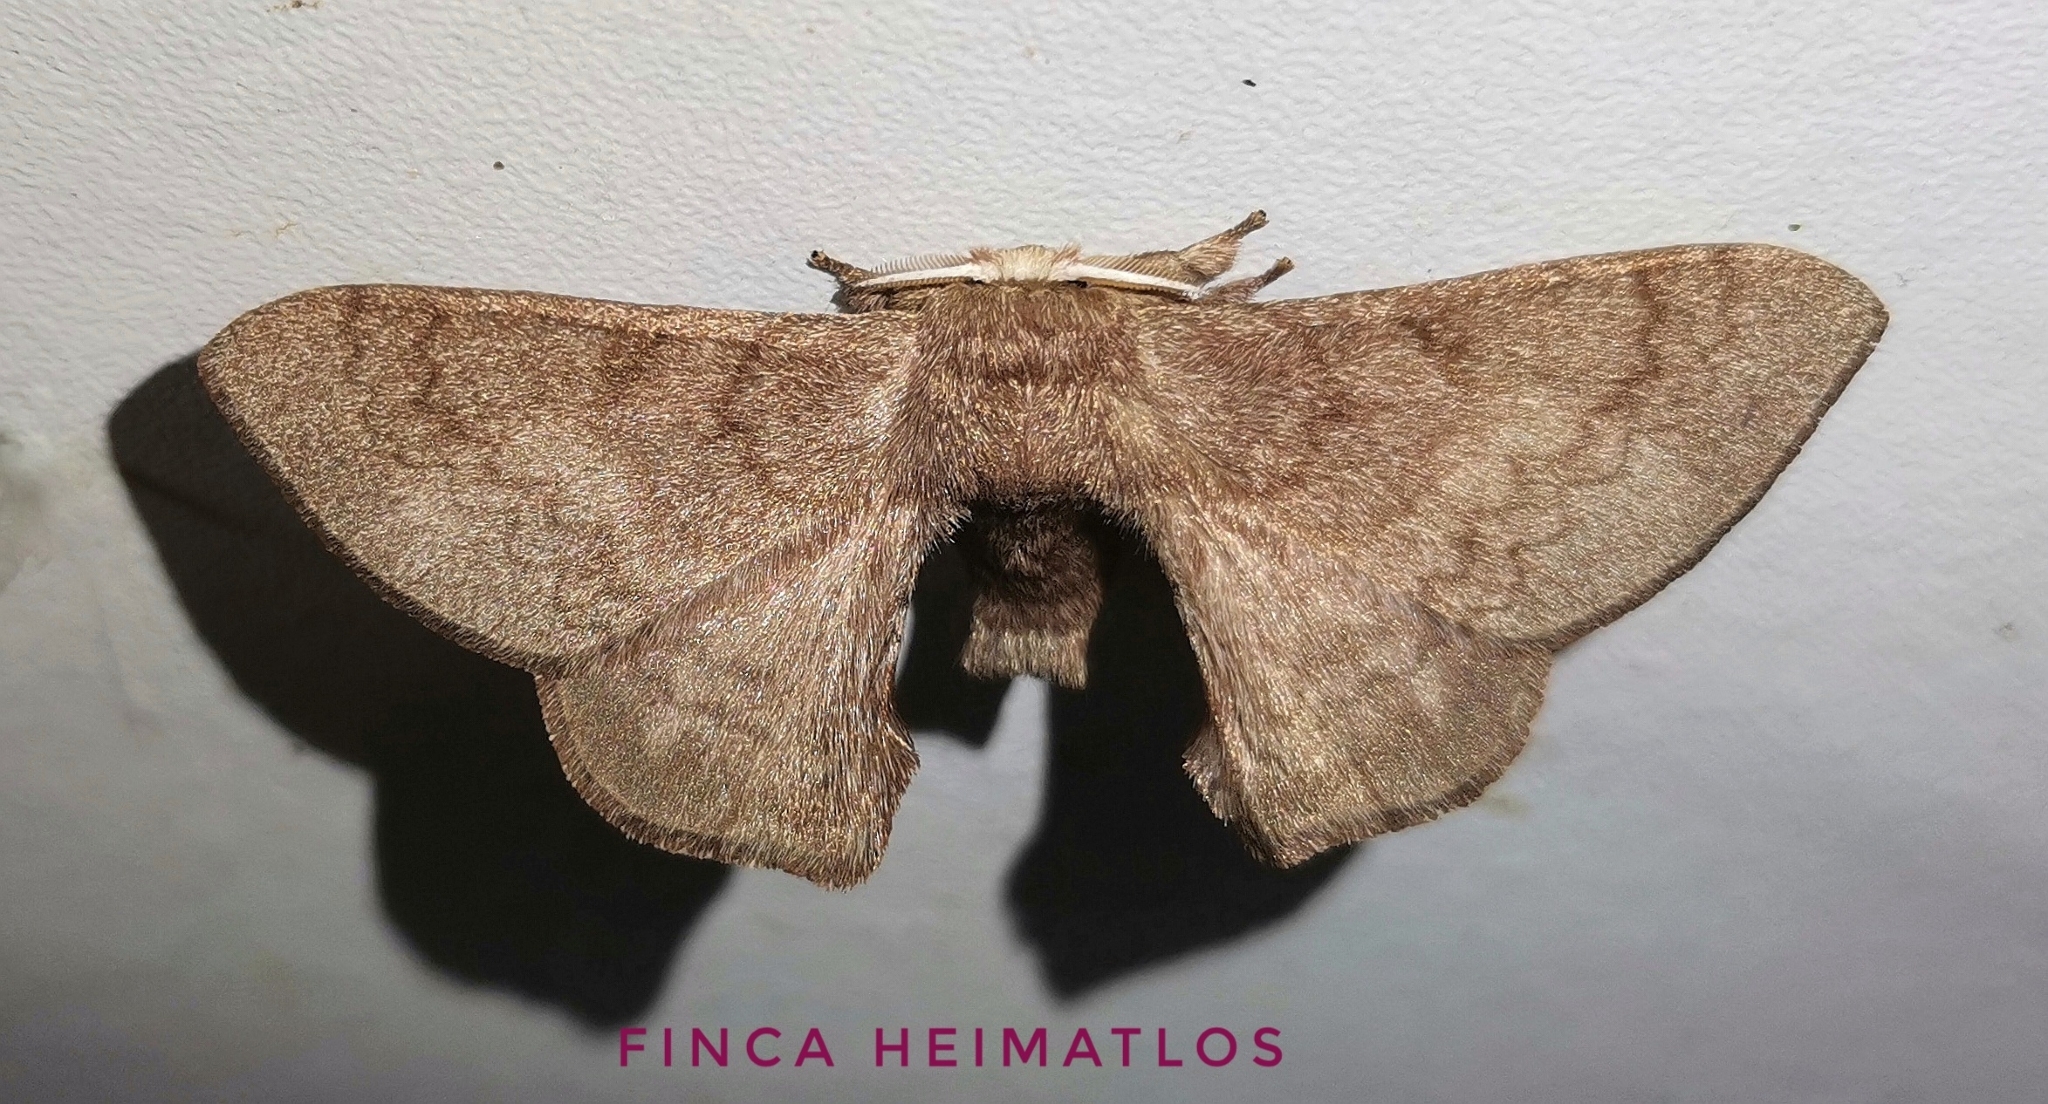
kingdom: Animalia
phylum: Arthropoda
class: Insecta
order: Lepidoptera
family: Bombycidae
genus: Epia
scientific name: Epia lunilinea
